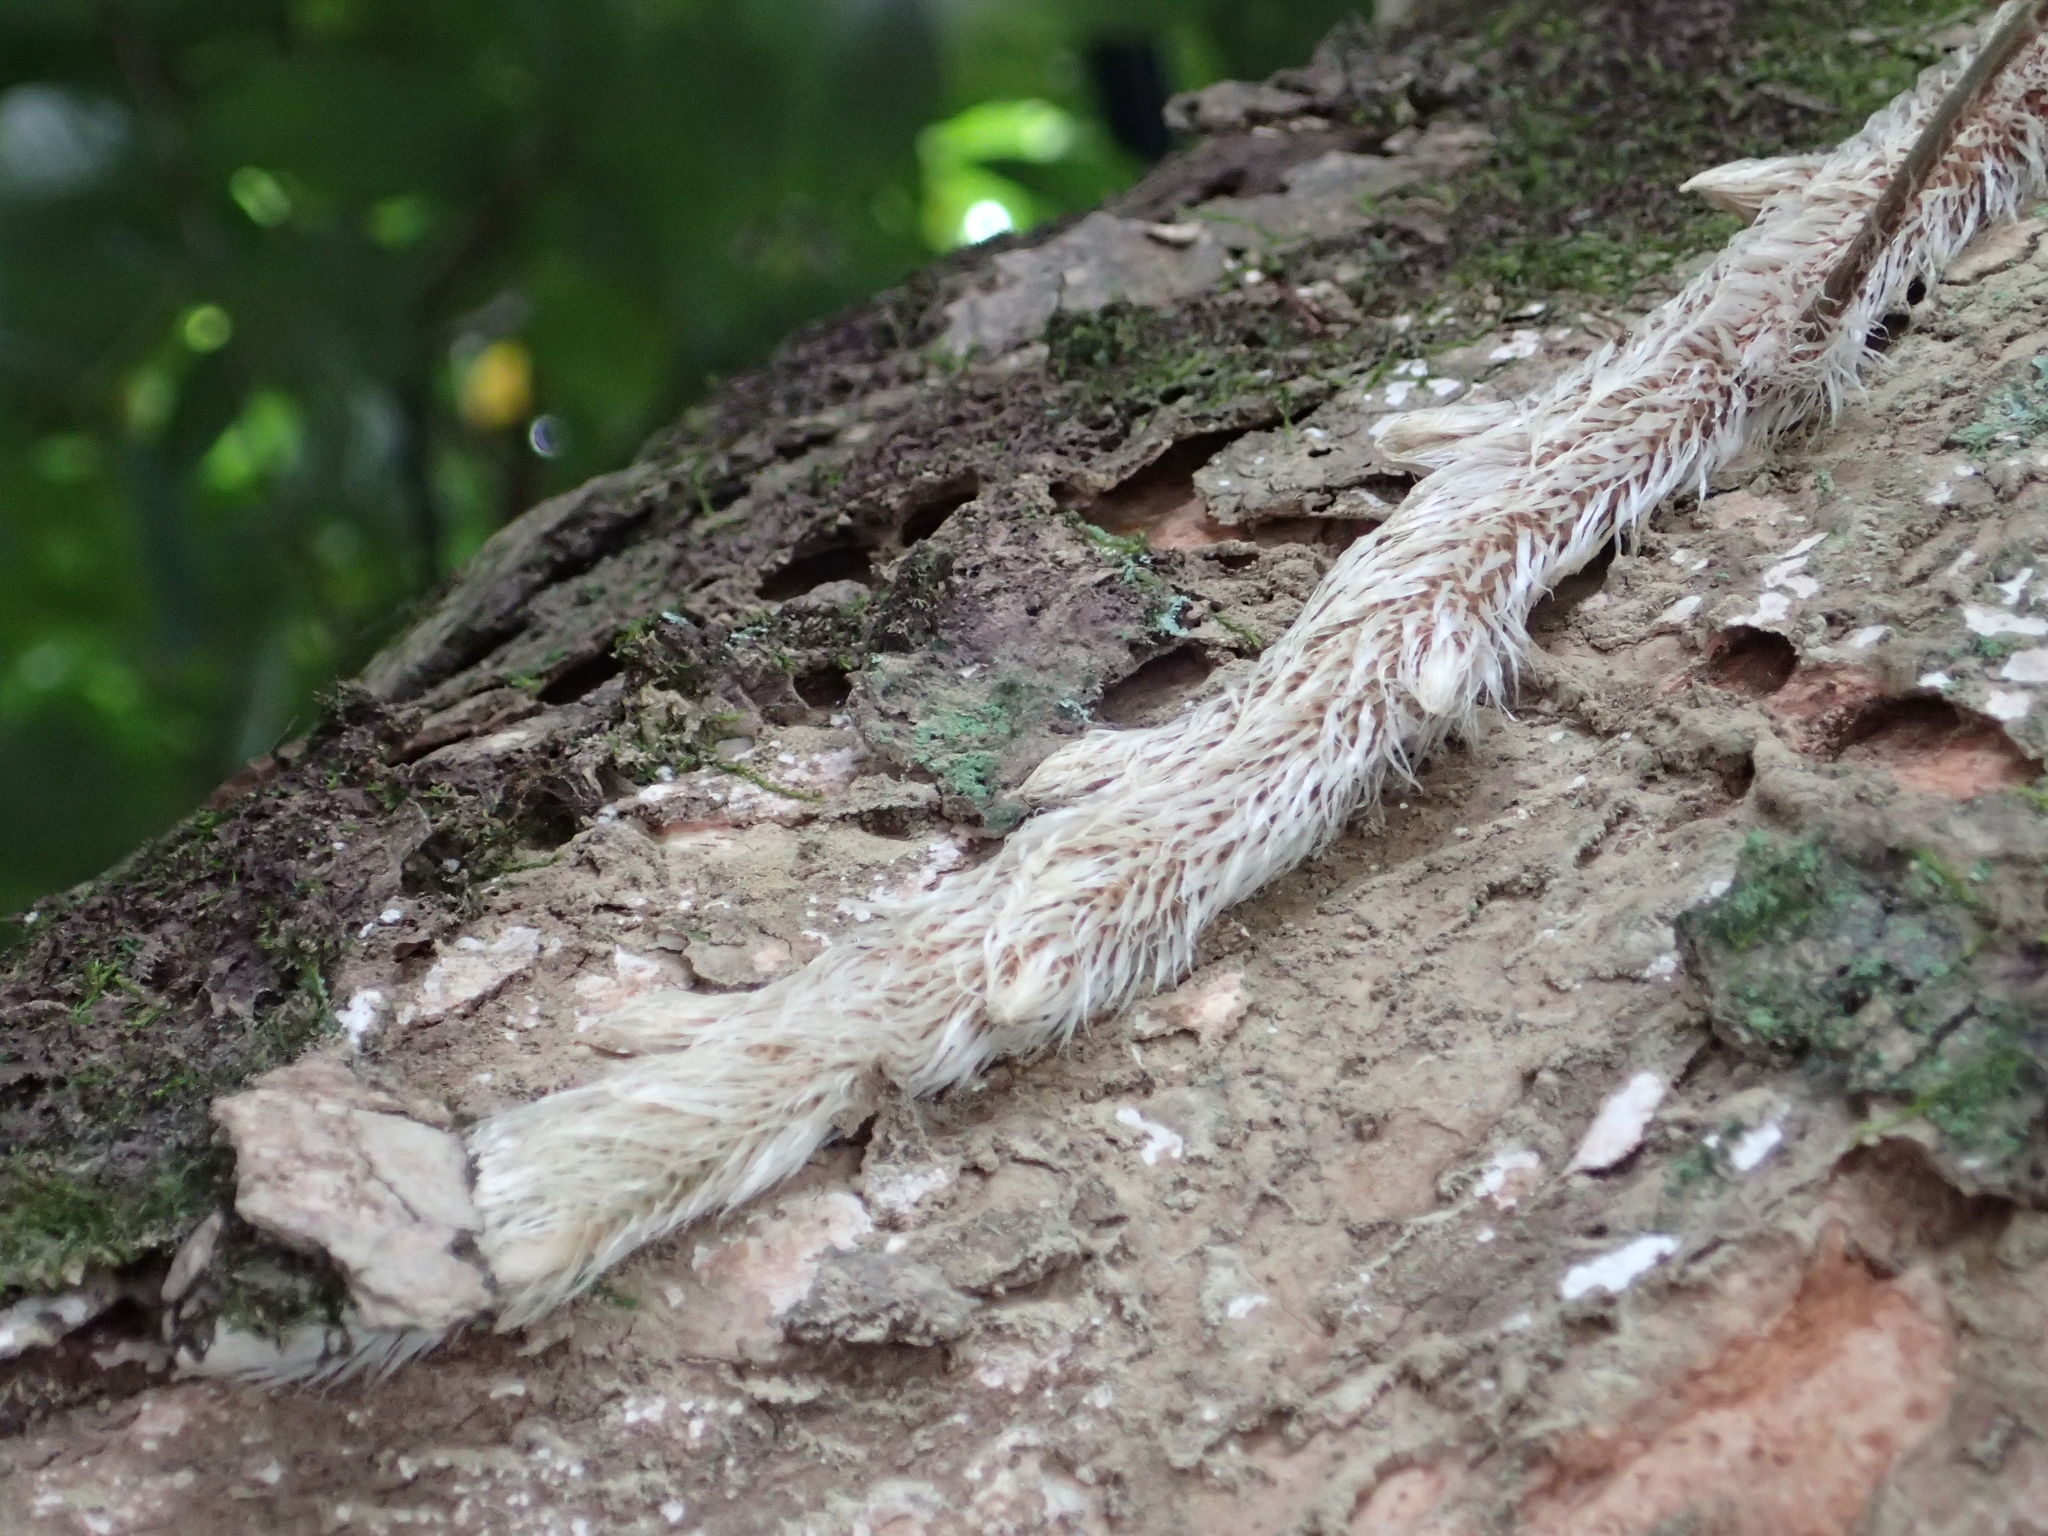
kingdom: Plantae
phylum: Tracheophyta
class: Polypodiopsida
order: Polypodiales
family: Davalliaceae
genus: Davallia
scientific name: Davallia griffithiana
